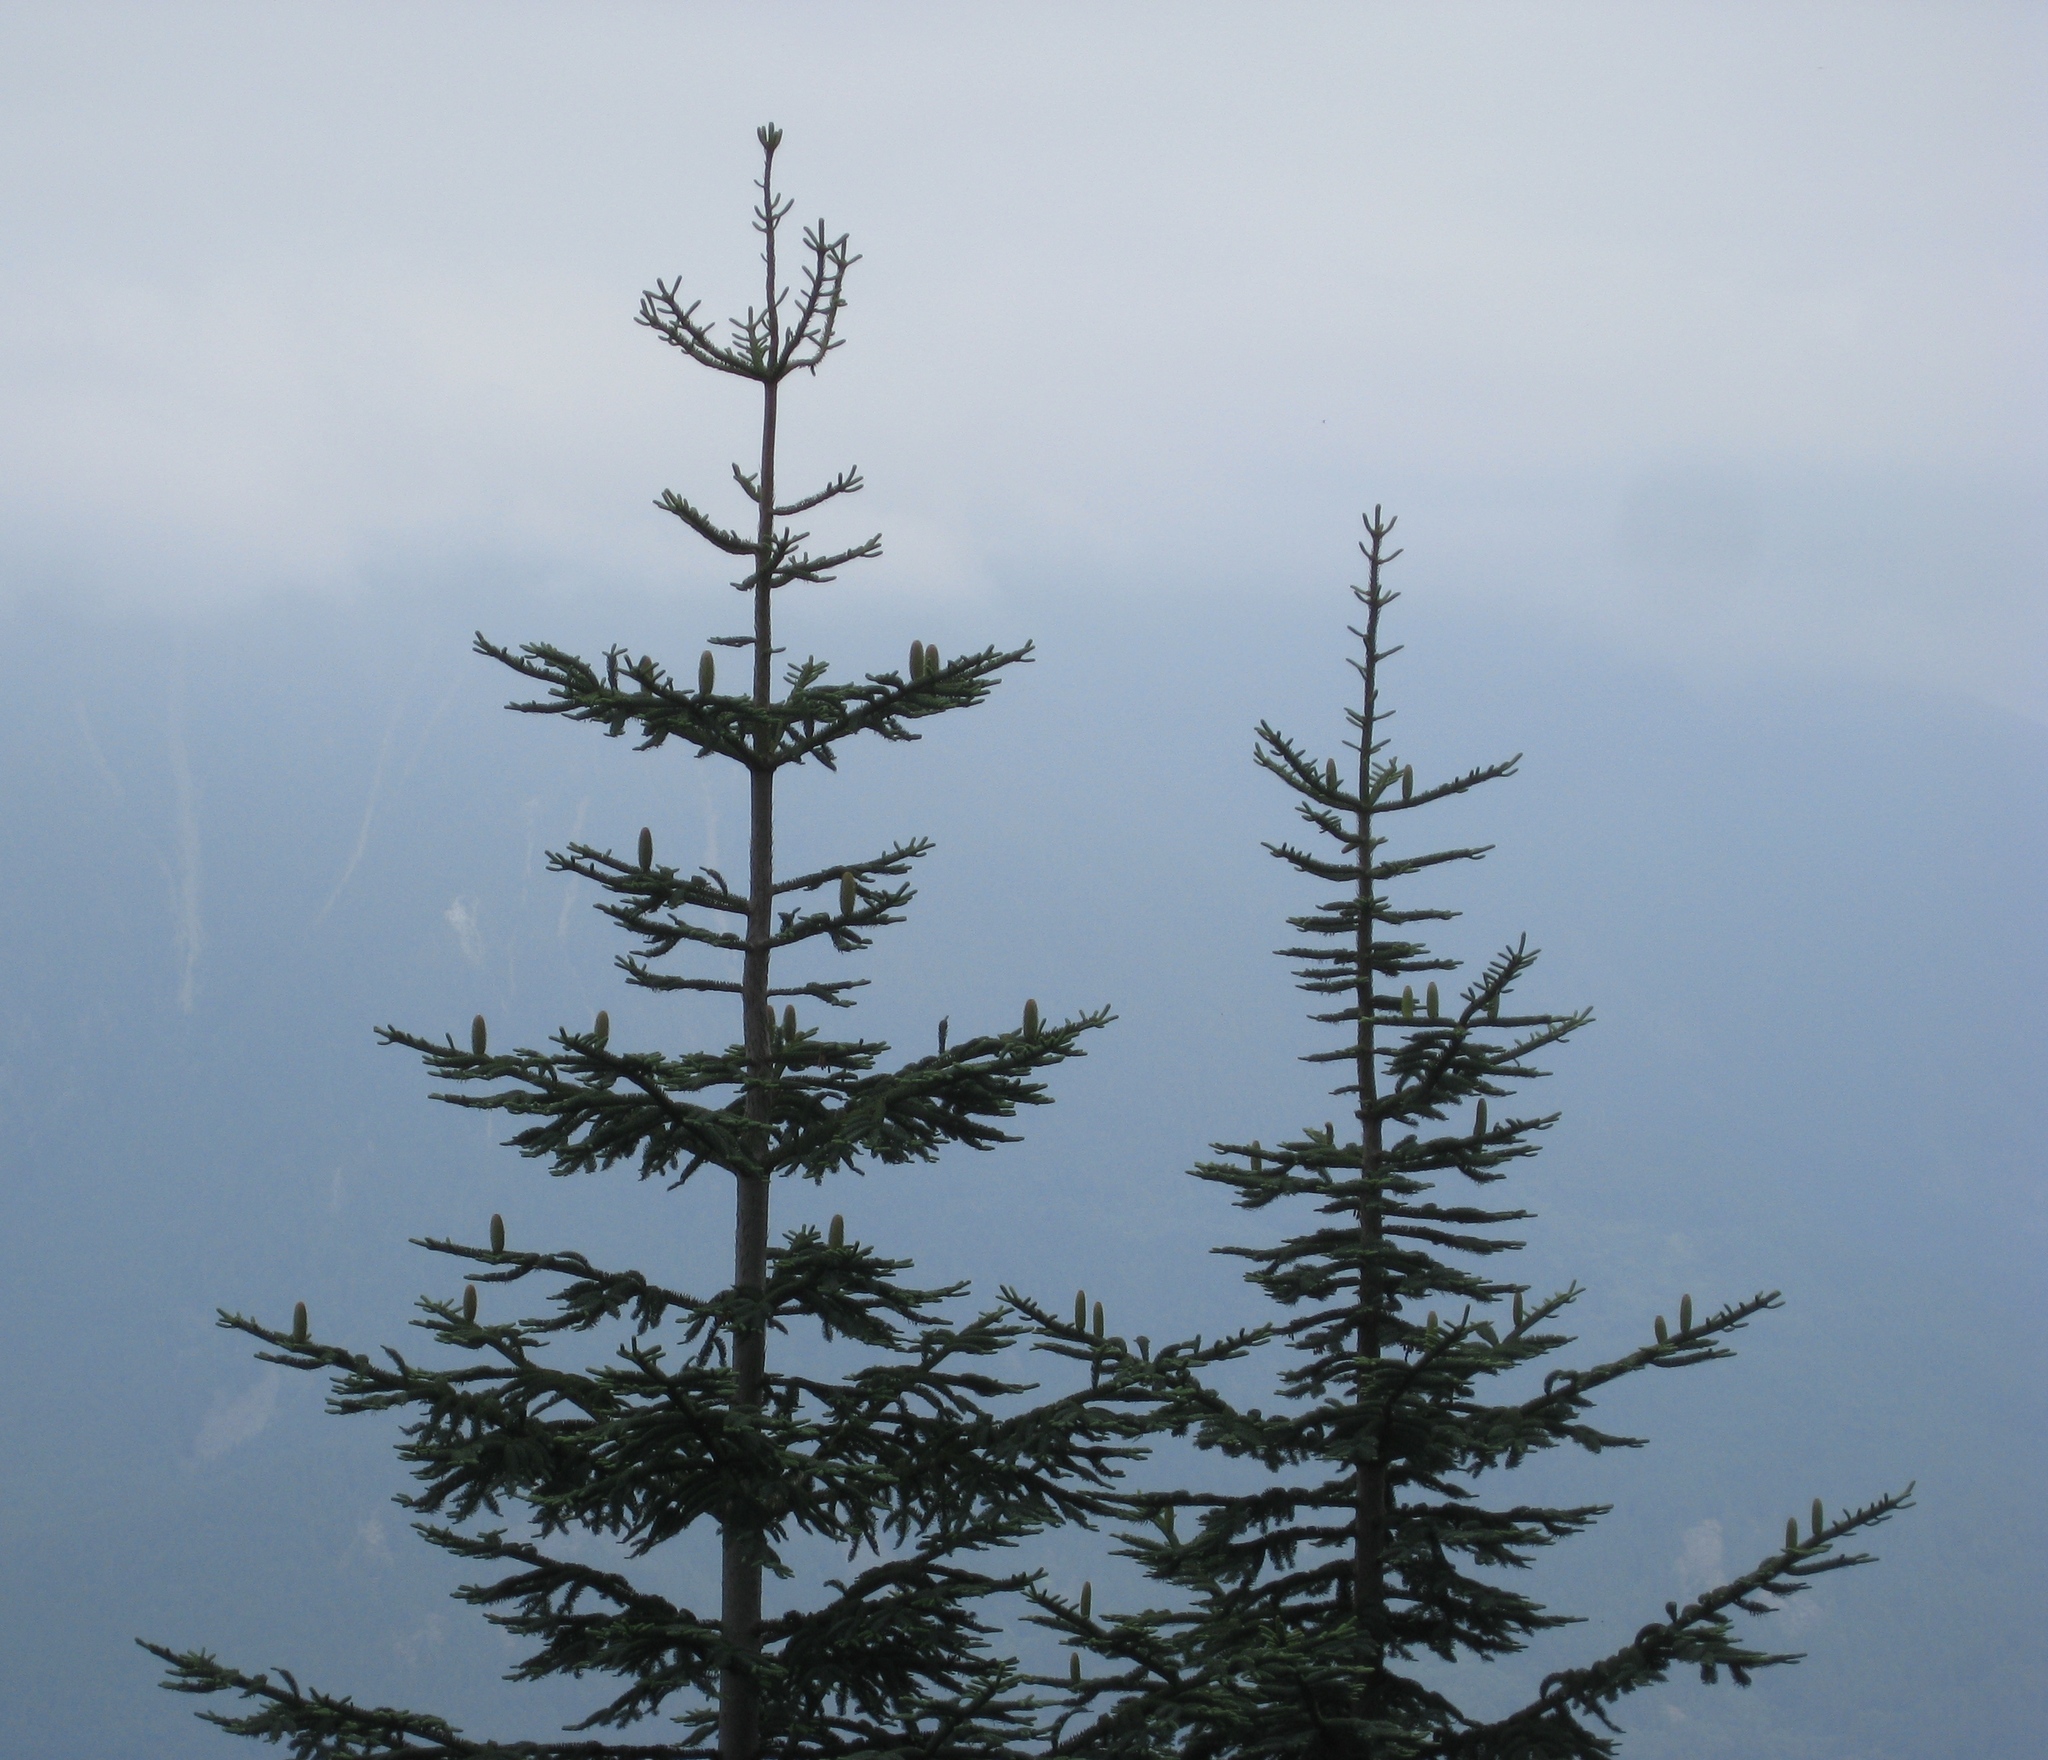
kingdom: Plantae
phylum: Tracheophyta
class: Pinopsida
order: Pinales
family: Pinaceae
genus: Abies
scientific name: Abies procera
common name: Noble fir
